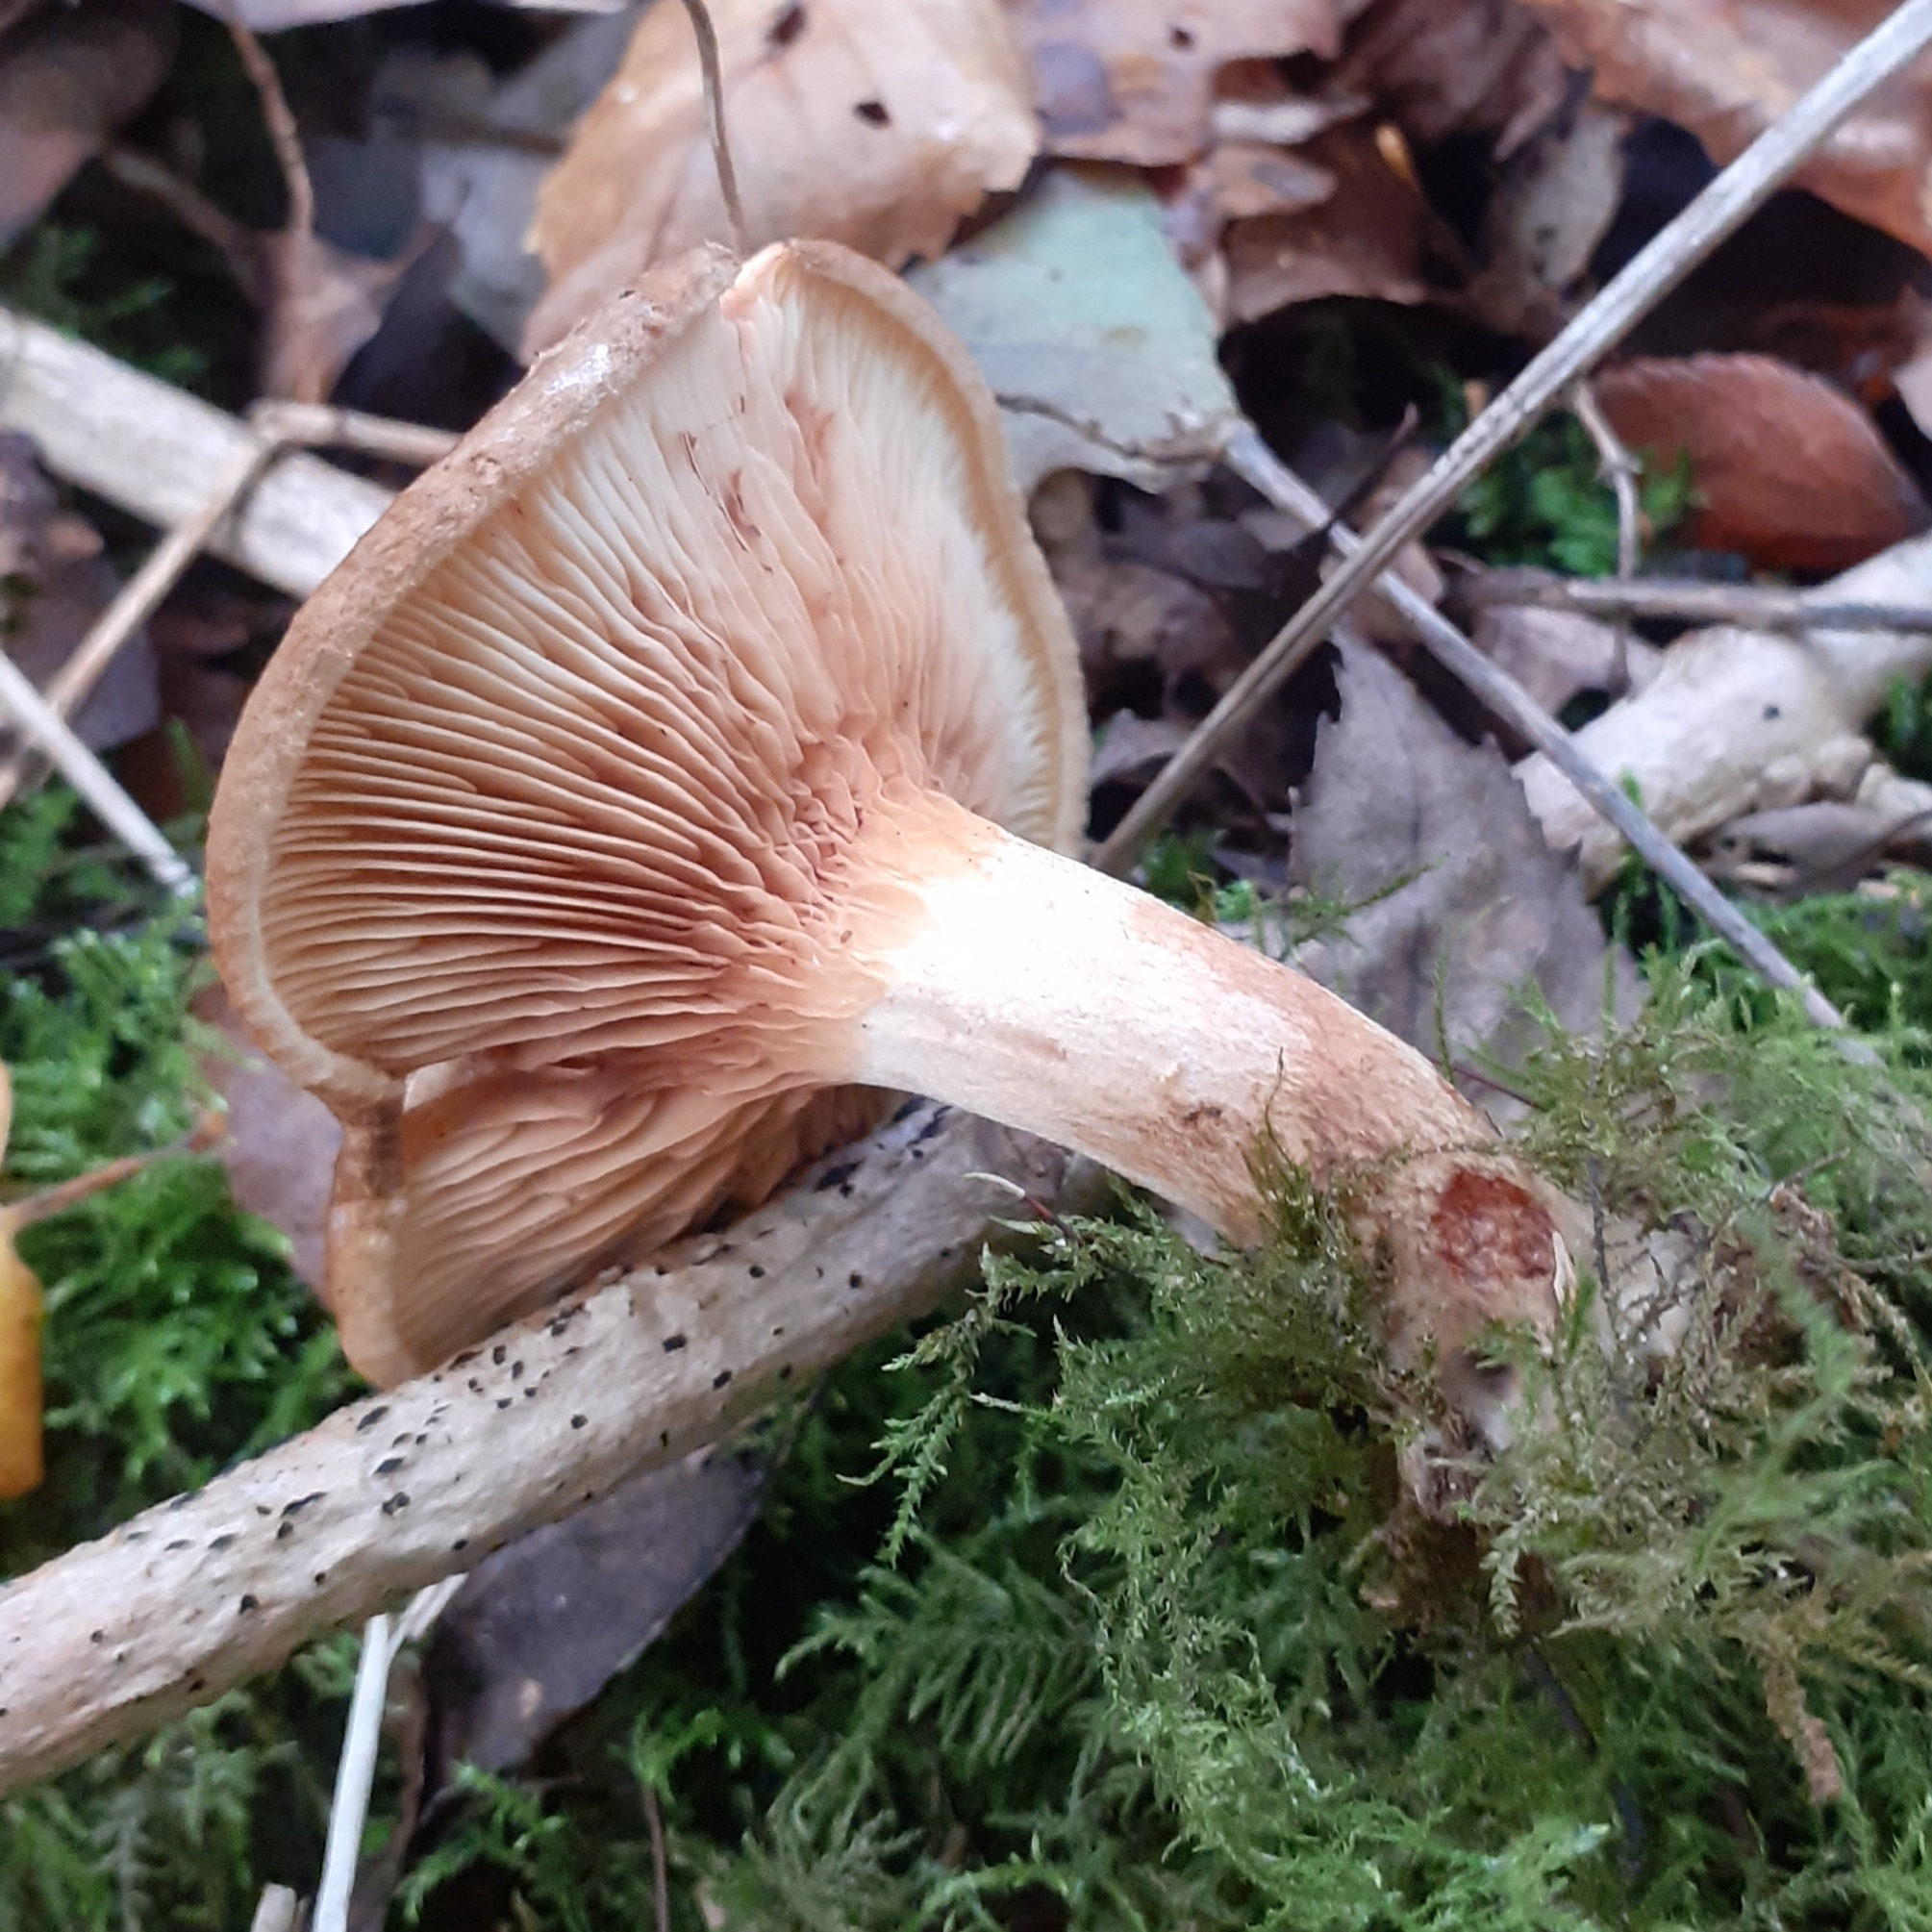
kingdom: Fungi
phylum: Basidiomycota
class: Agaricomycetes
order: Boletales
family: Paxillaceae
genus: Paxillus
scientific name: Paxillus involutus
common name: Brown roll rim
